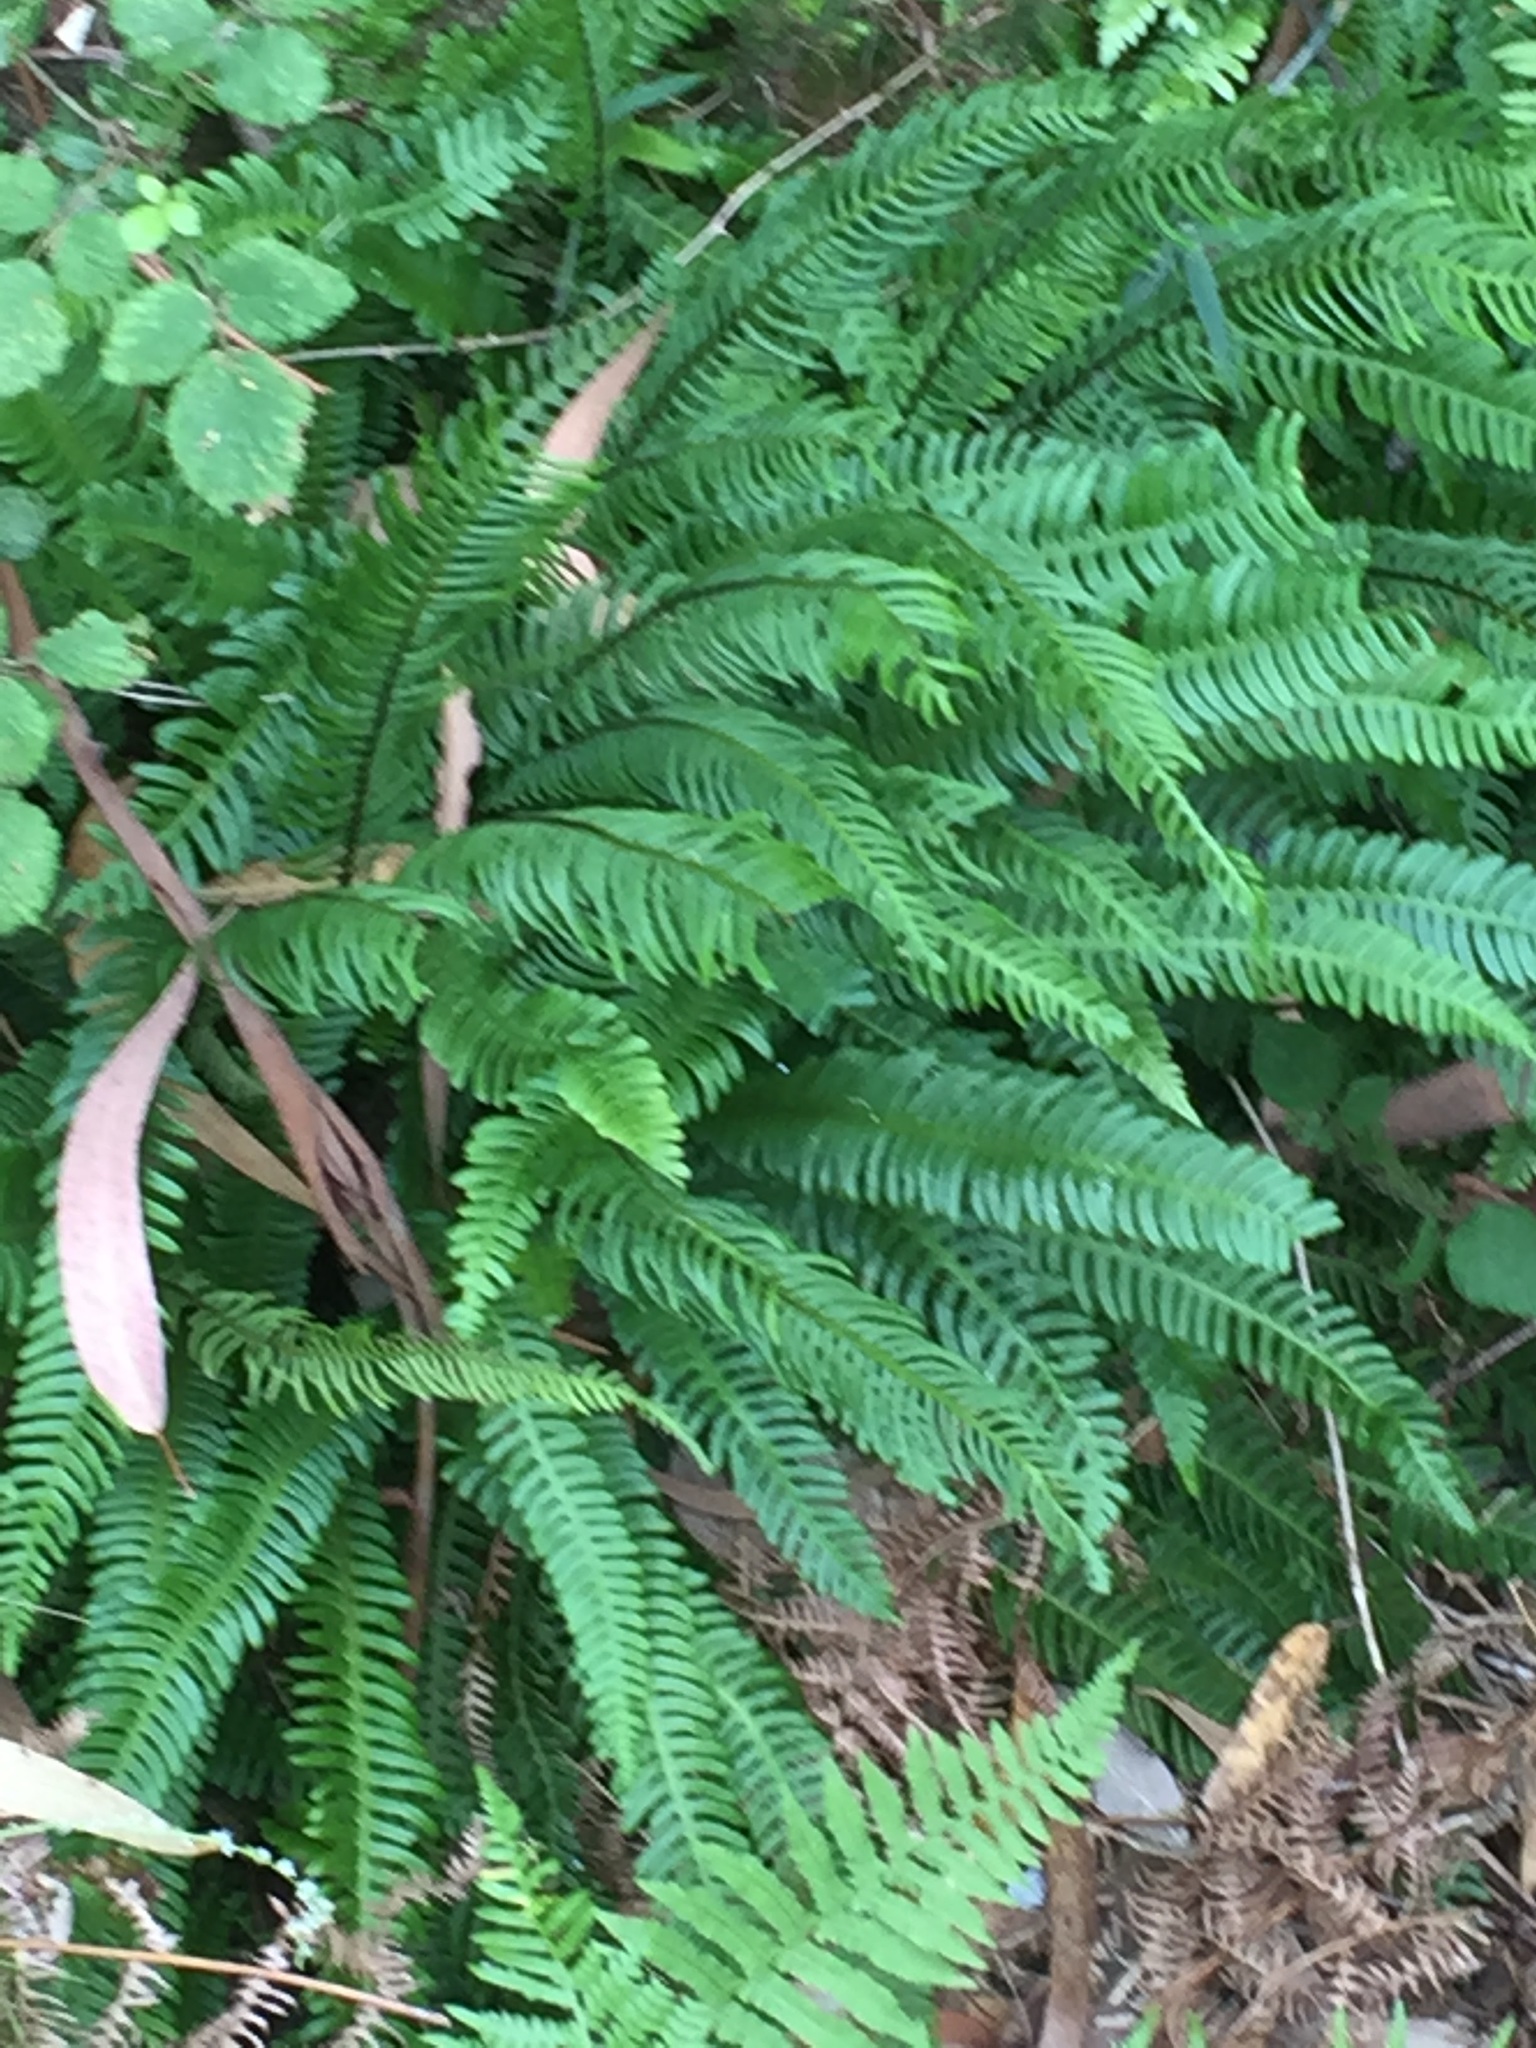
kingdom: Plantae
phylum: Tracheophyta
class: Polypodiopsida
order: Polypodiales
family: Blechnaceae
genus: Struthiopteris
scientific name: Struthiopteris spicant
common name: Deer fern
